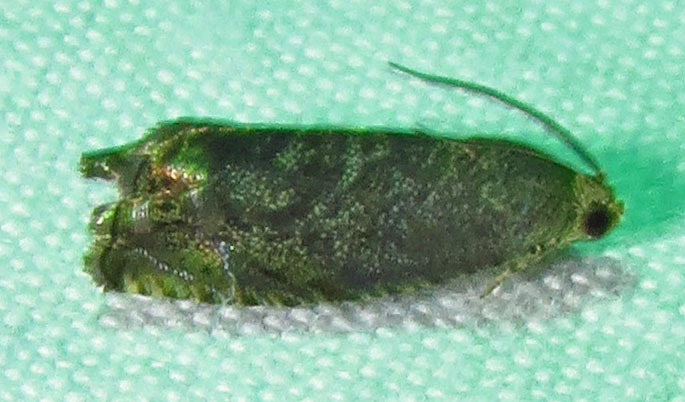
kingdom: Animalia
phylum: Arthropoda
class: Insecta
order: Lepidoptera
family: Tortricidae
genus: Cydia
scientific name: Cydia caryana
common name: Hickory shuckworm moth
